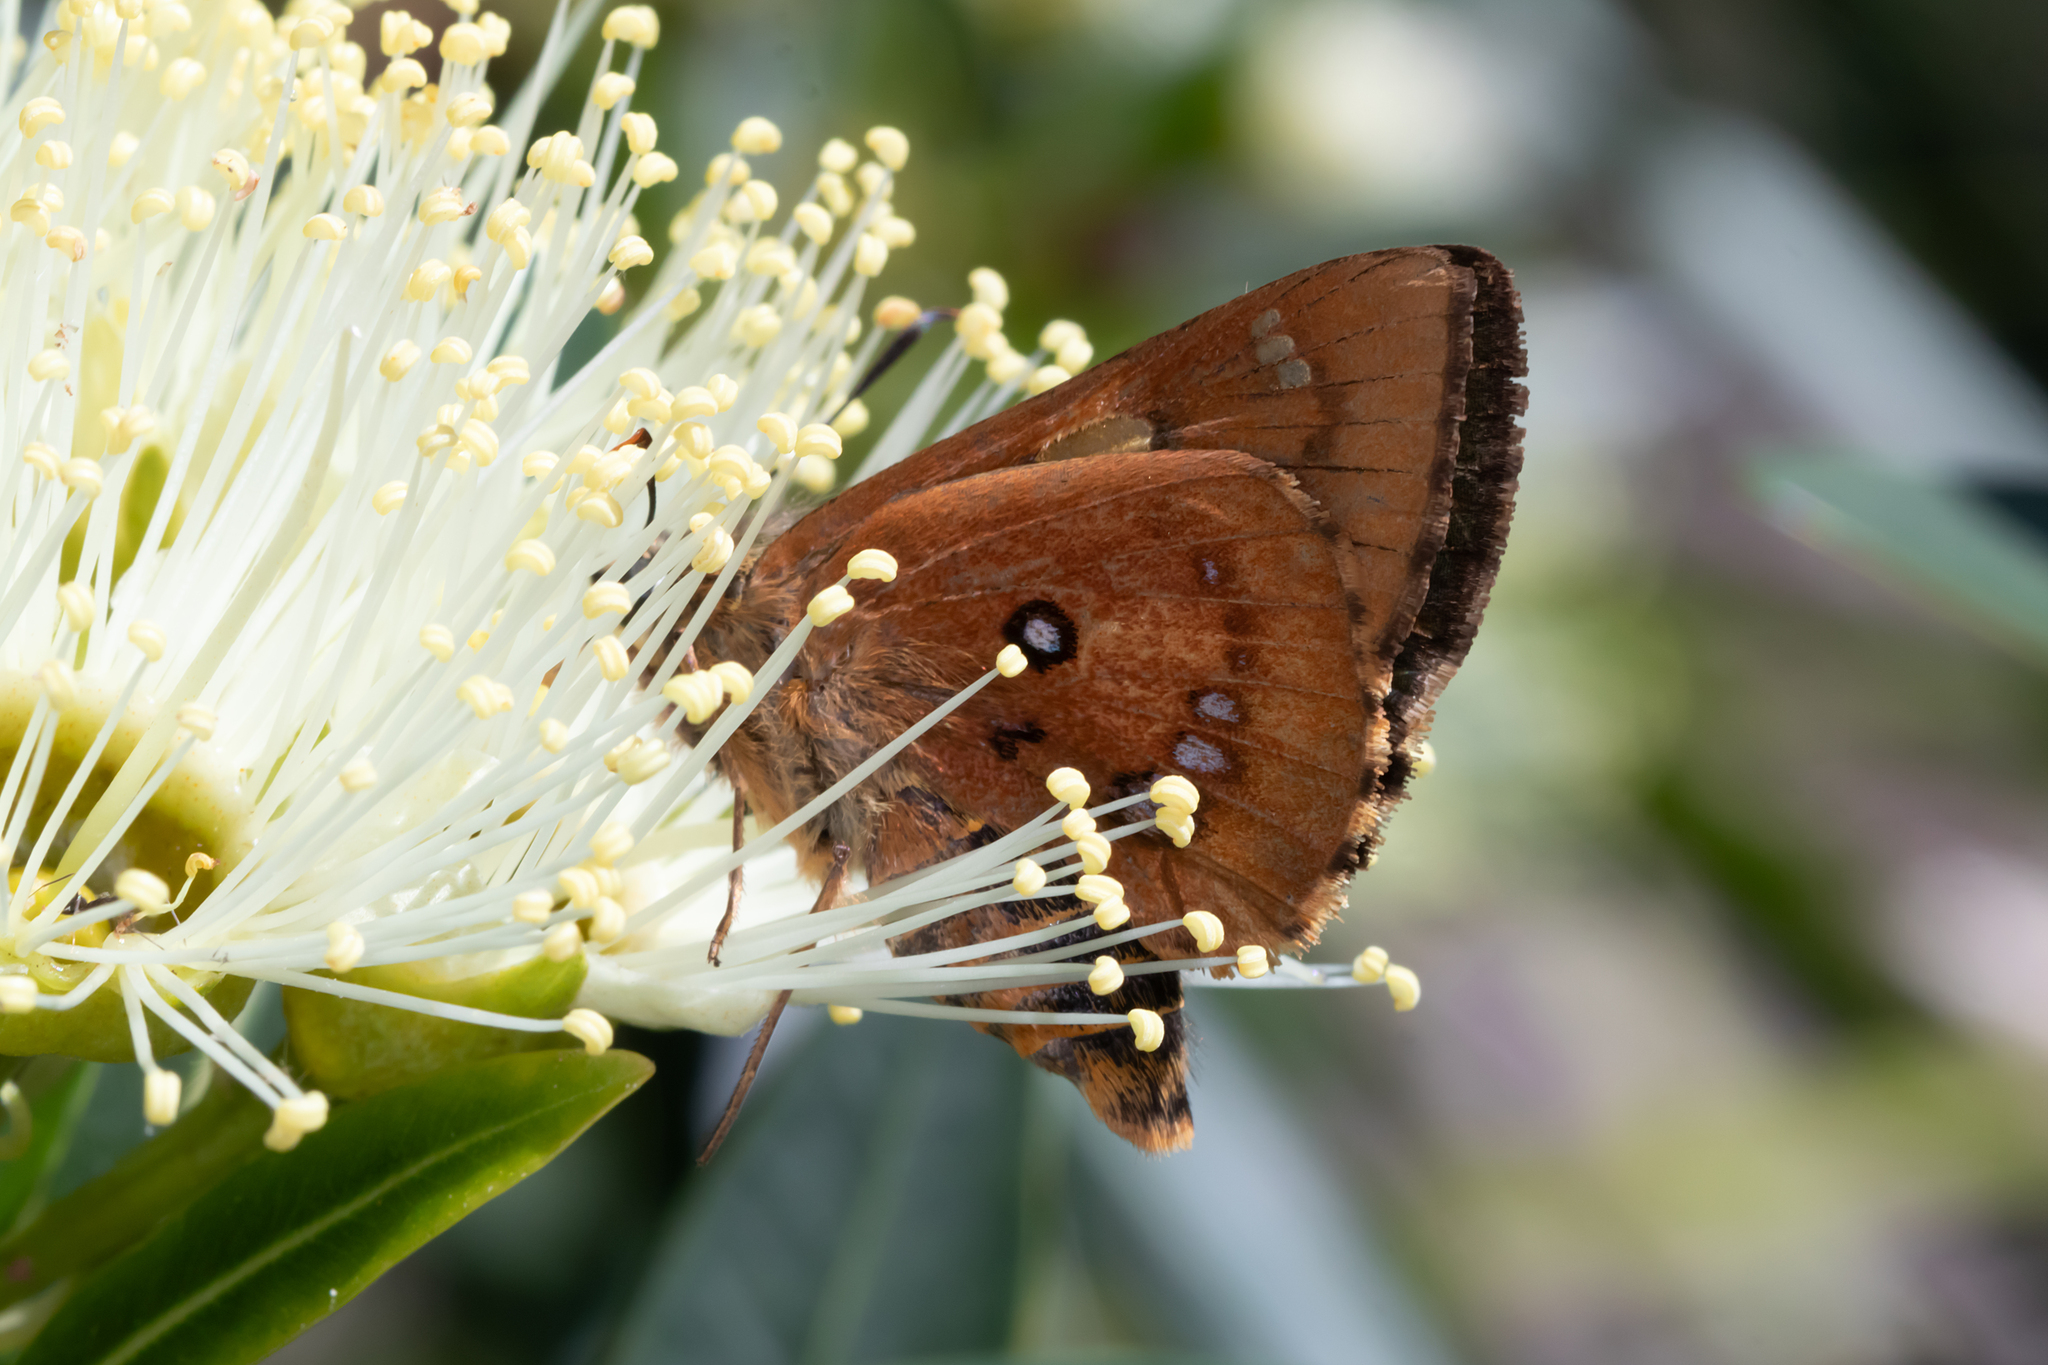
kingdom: Animalia
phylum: Arthropoda
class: Insecta
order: Lepidoptera
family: Hesperiidae
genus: Trapezites
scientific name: Trapezites symmomus
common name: Splendid ochre
